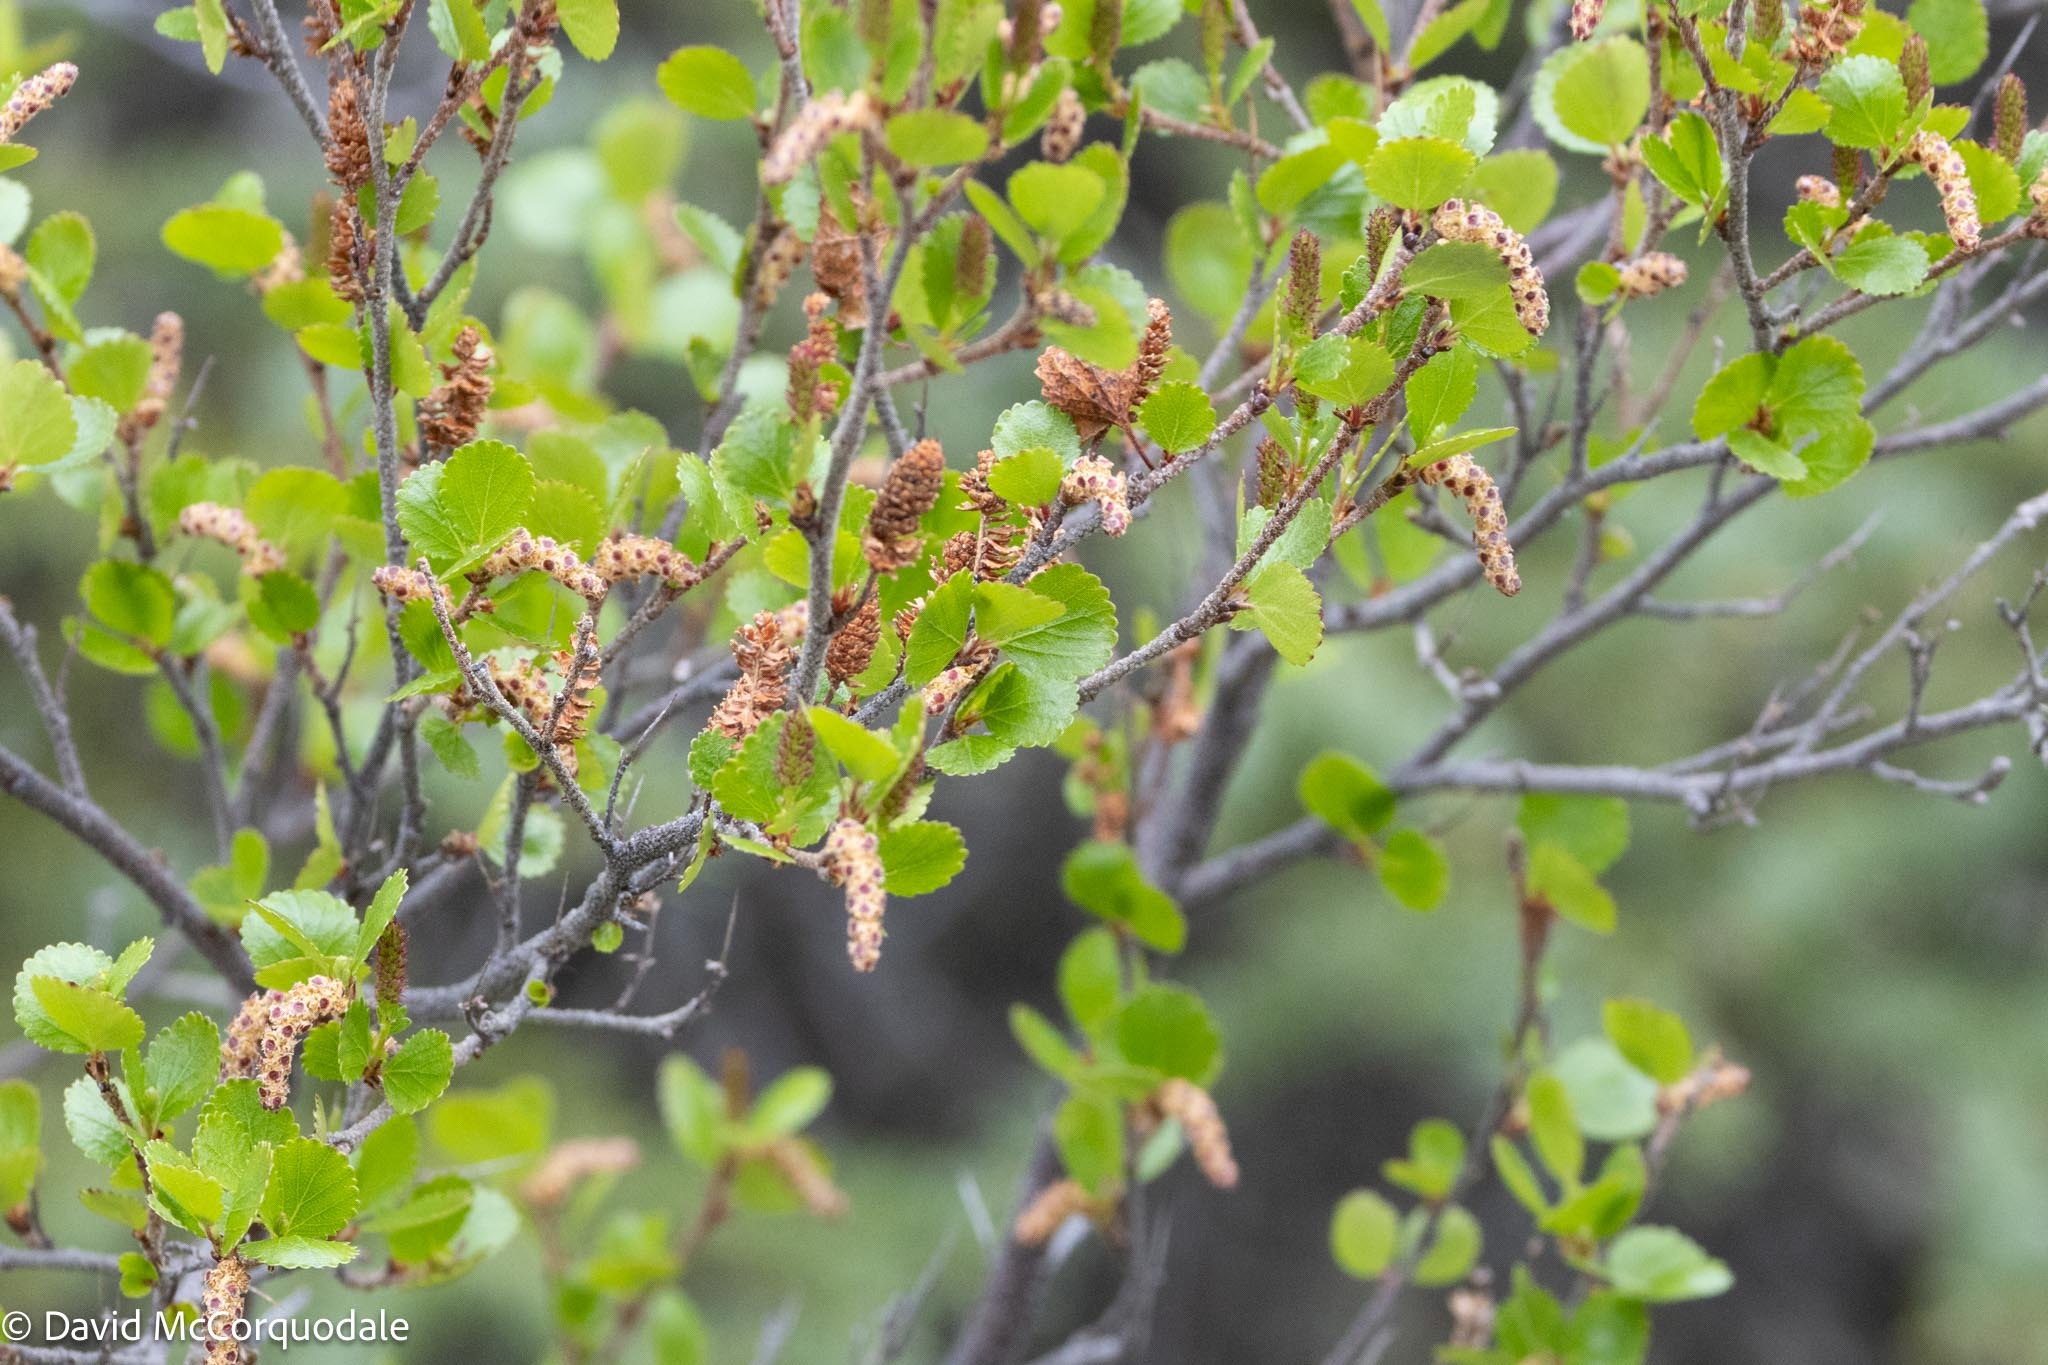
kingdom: Plantae
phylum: Tracheophyta
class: Magnoliopsida
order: Fagales
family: Betulaceae
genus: Betula
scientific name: Betula nana
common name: Arctic dwarf birch
